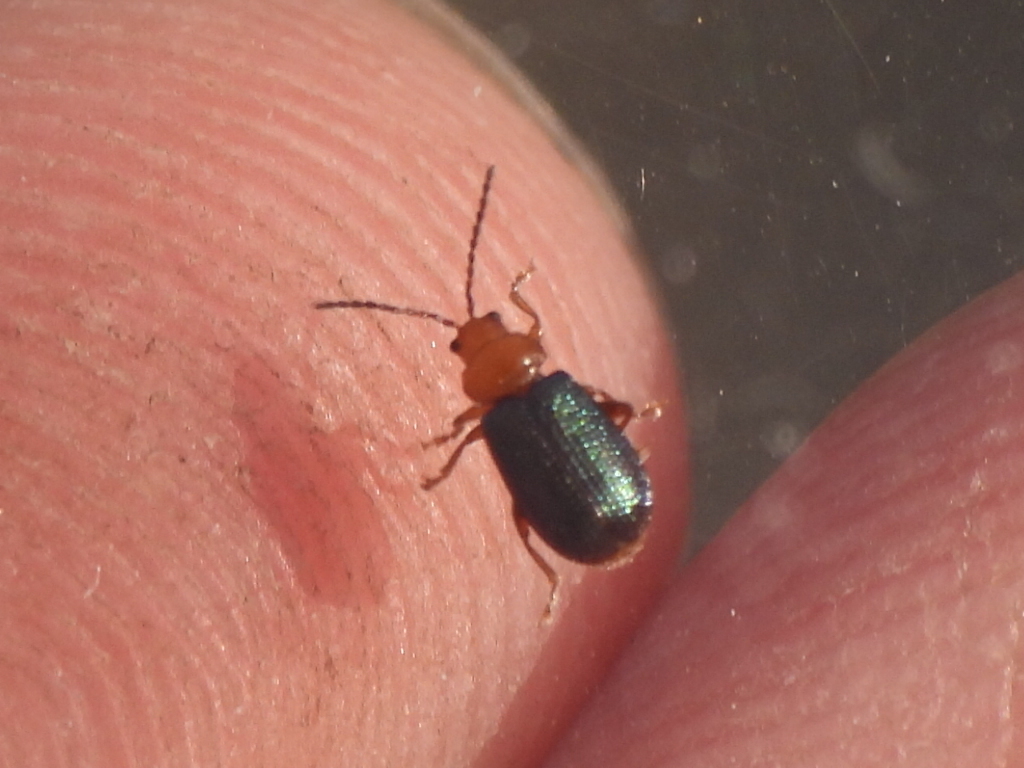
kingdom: Animalia
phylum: Arthropoda
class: Insecta
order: Coleoptera
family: Chrysomelidae
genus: Trichaltica
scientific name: Trichaltica scabricula
